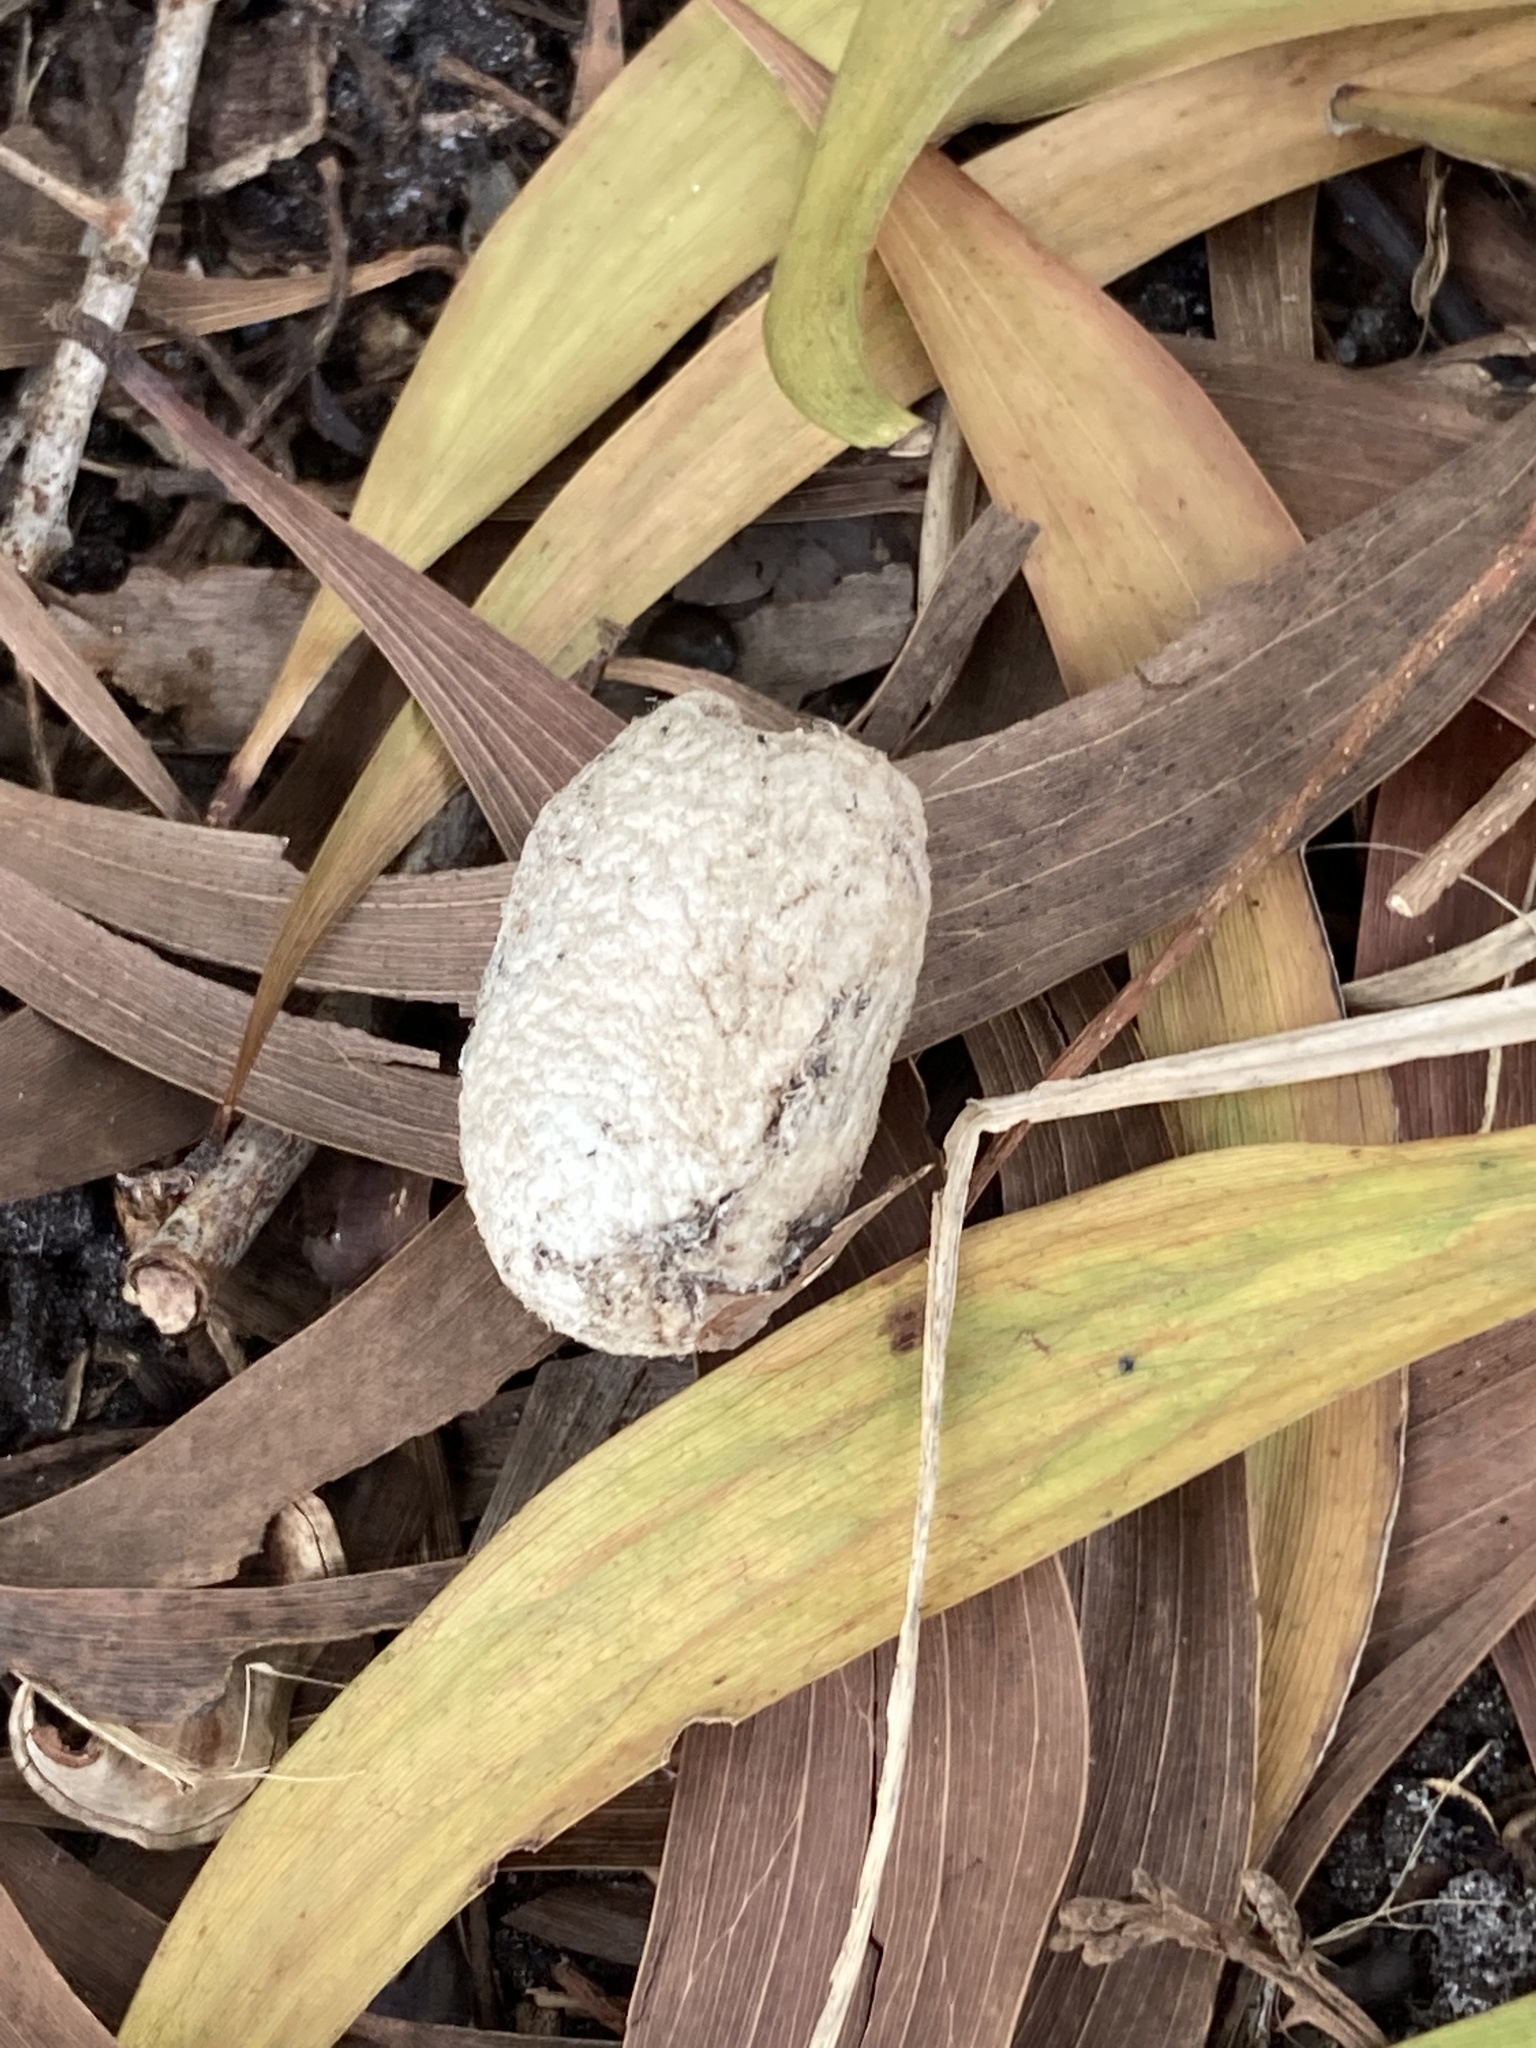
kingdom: Animalia
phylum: Arthropoda
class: Insecta
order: Lepidoptera
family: Saturniidae
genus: Antheraea
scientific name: Antheraea polyphemus
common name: Polyphemus moth
